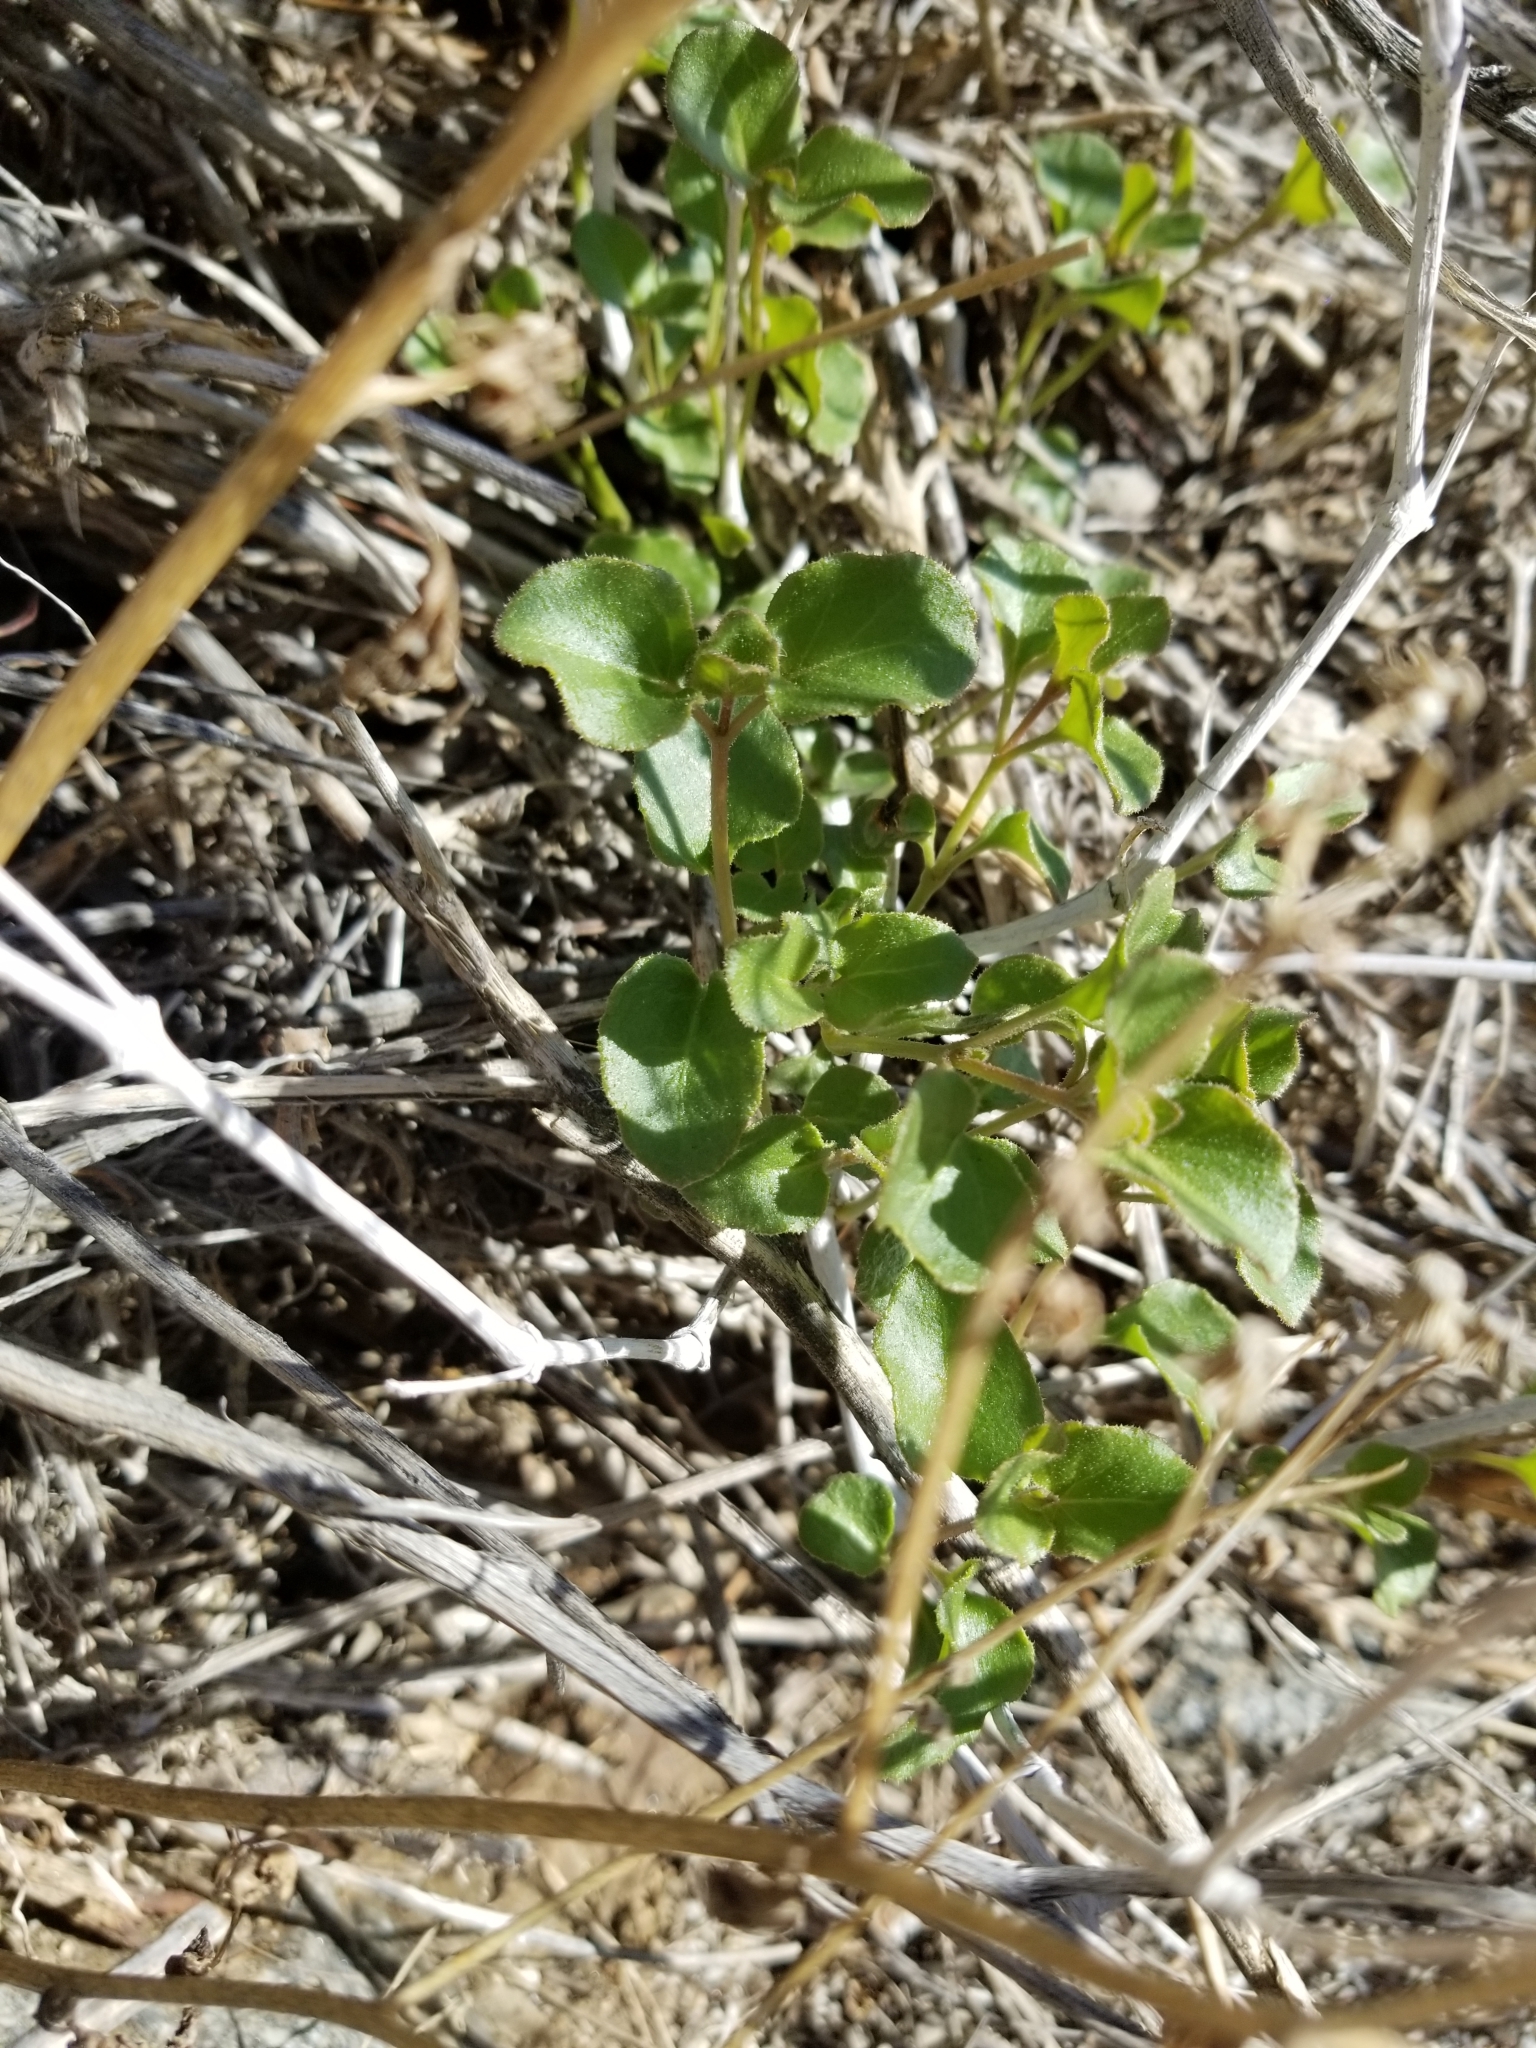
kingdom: Plantae
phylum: Tracheophyta
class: Magnoliopsida
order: Caryophyllales
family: Nyctaginaceae
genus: Mirabilis
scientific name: Mirabilis laevis
